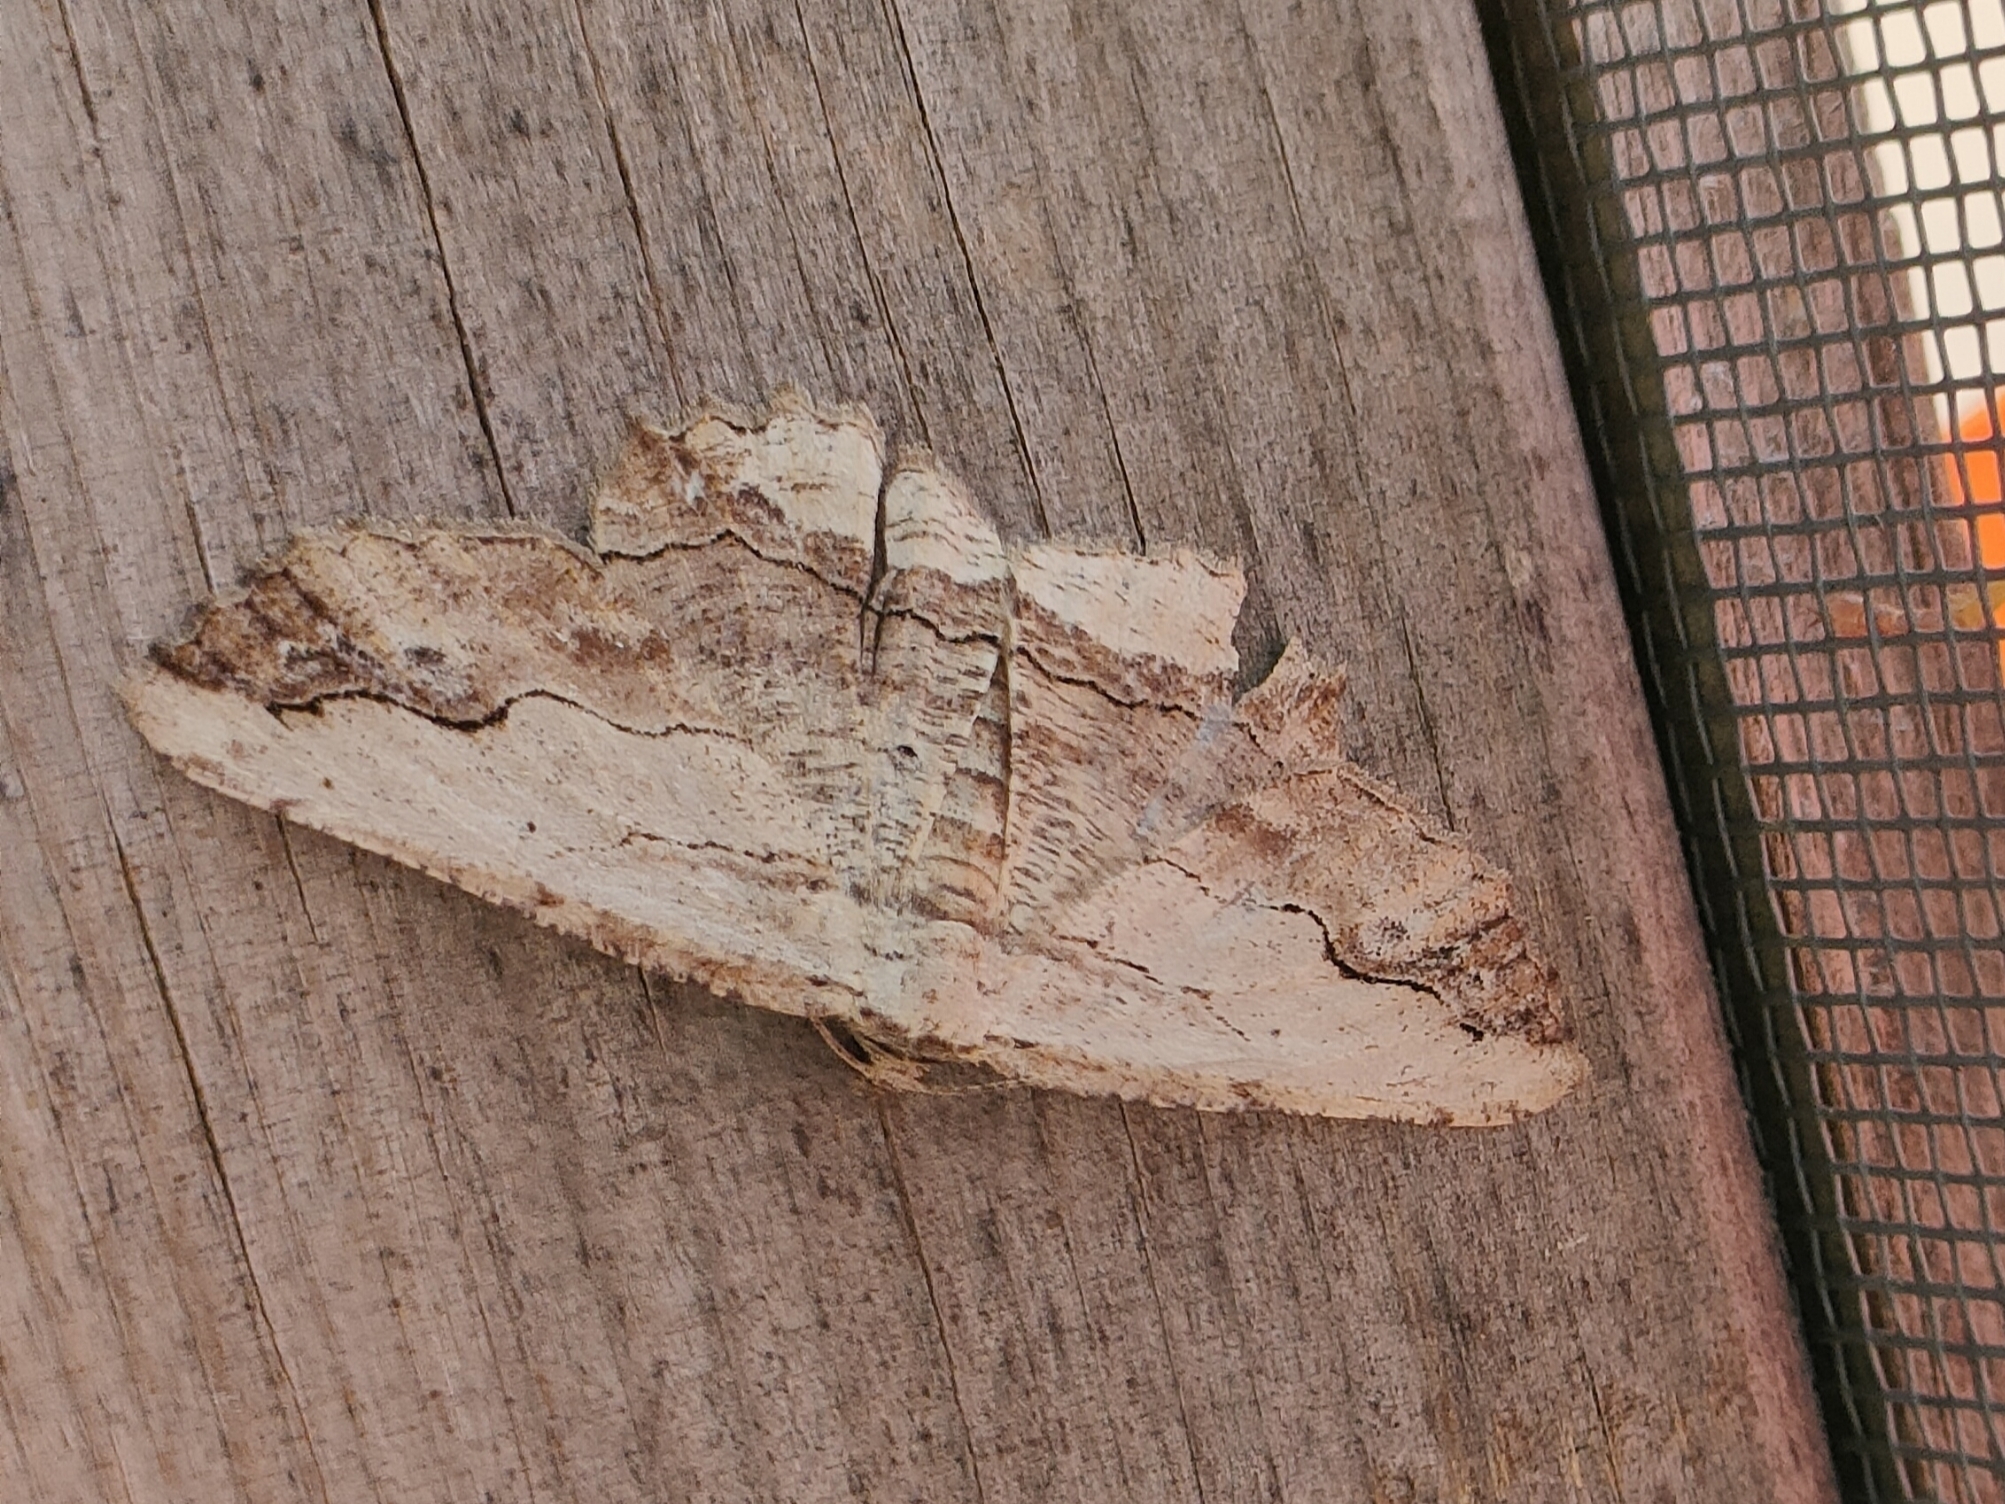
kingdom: Animalia
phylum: Arthropoda
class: Insecta
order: Lepidoptera
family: Geometridae
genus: Menophra
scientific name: Menophra abruptaria
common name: Waved umber
